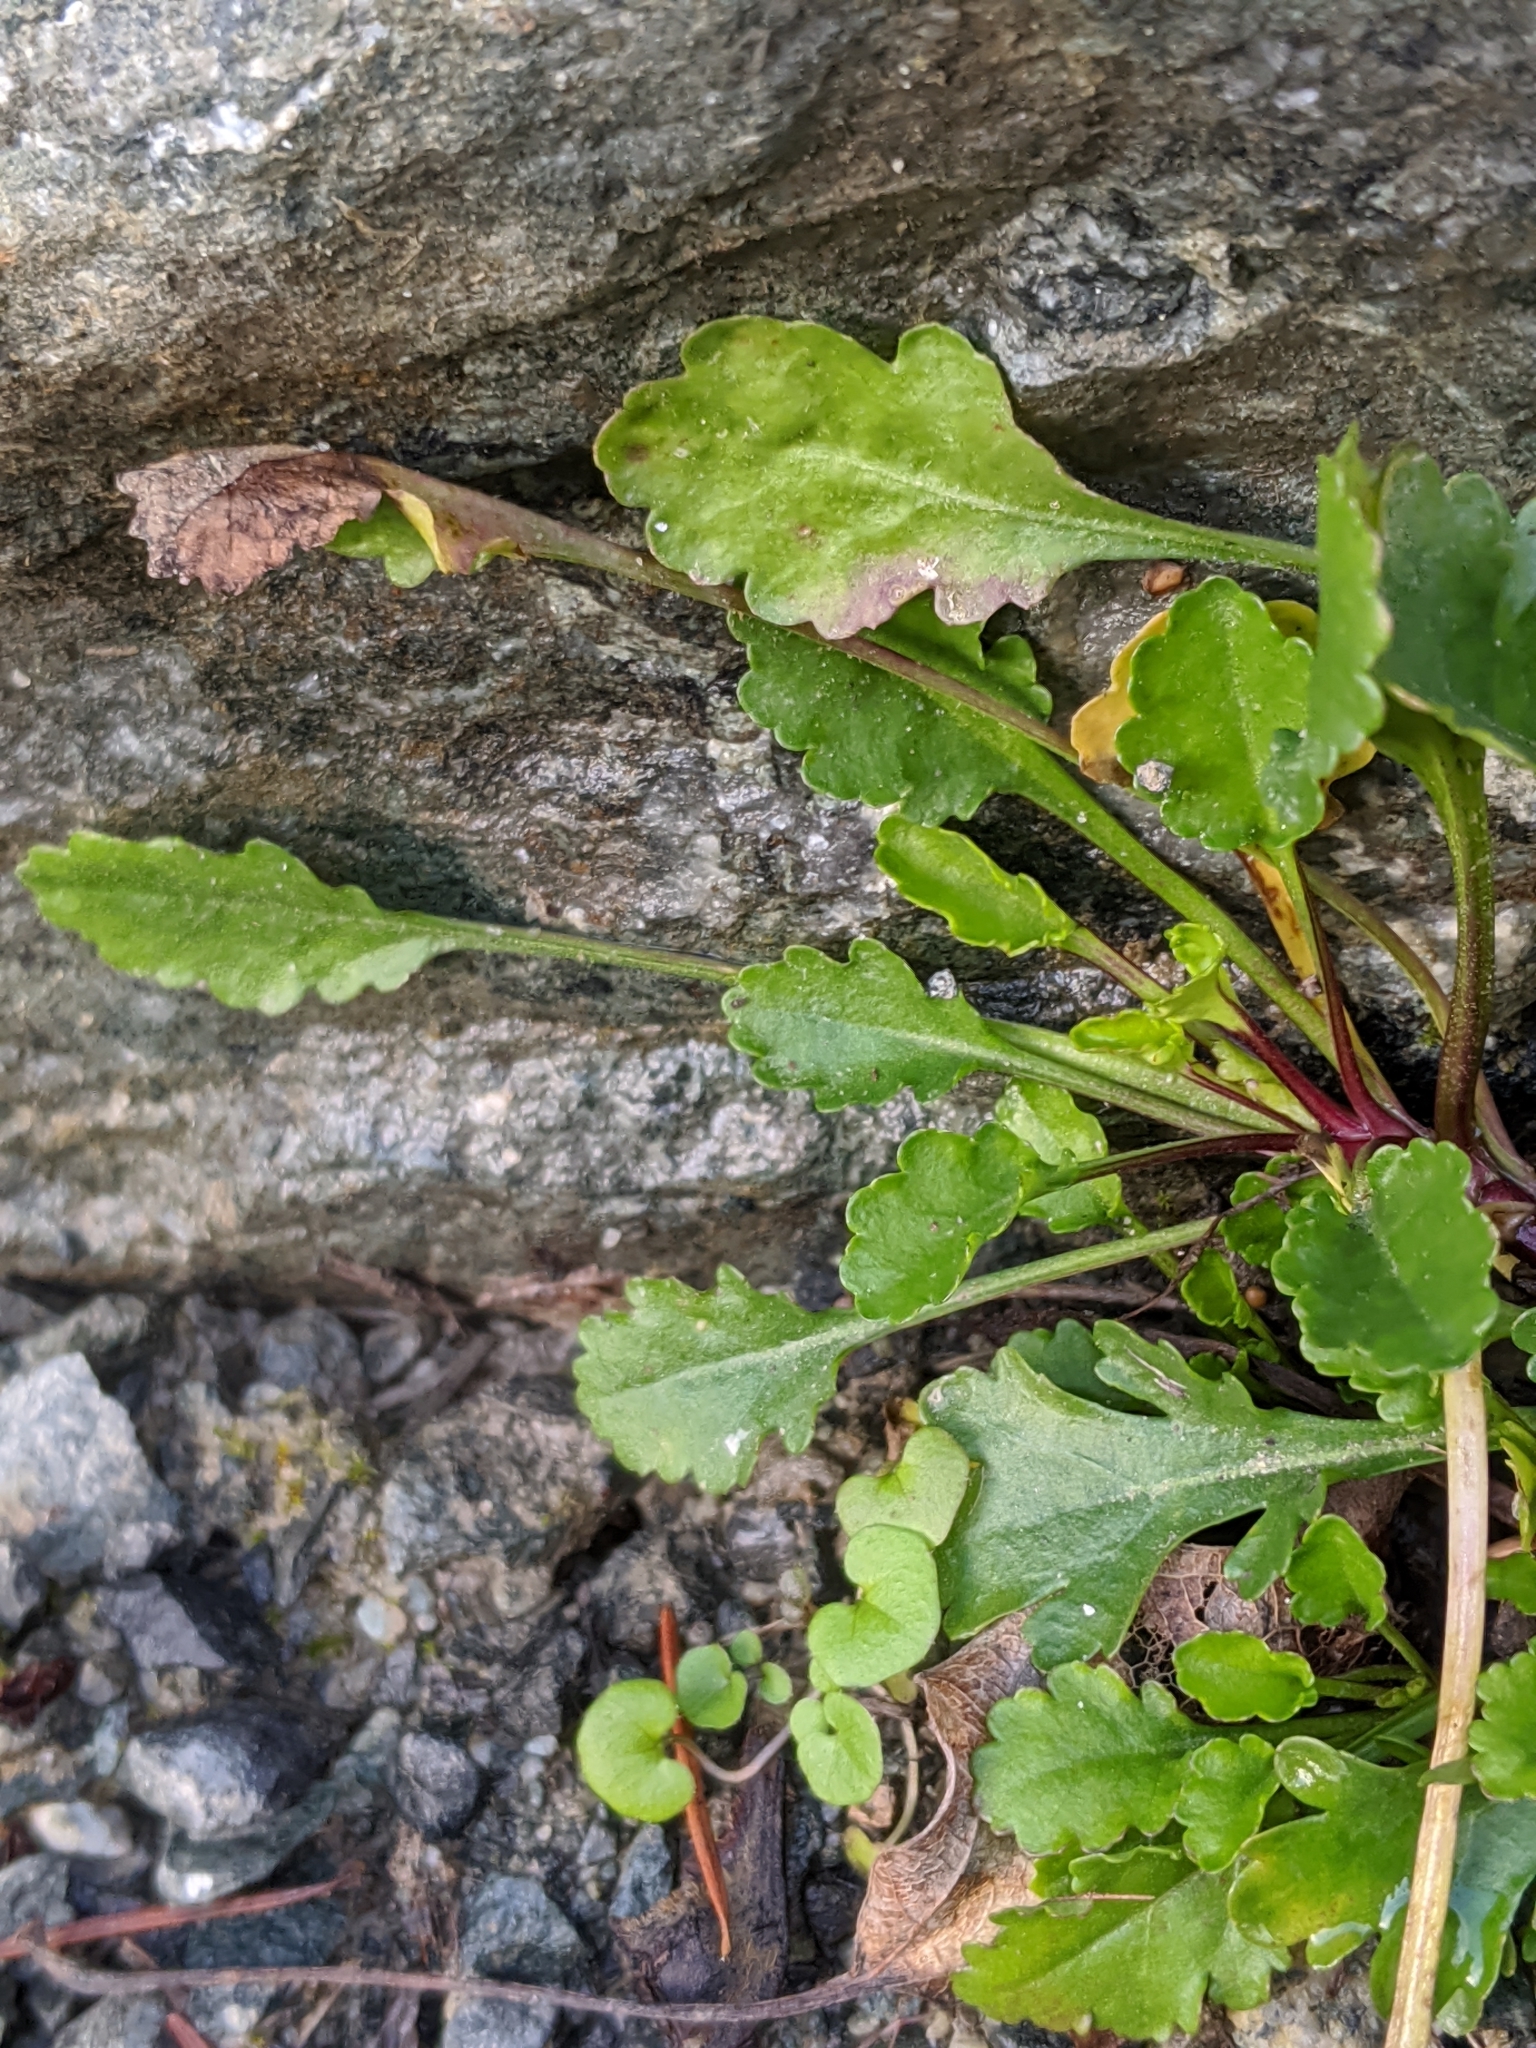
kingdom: Plantae
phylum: Tracheophyta
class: Magnoliopsida
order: Asterales
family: Asteraceae
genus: Leucanthemum
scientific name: Leucanthemum vulgare
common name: Oxeye daisy
